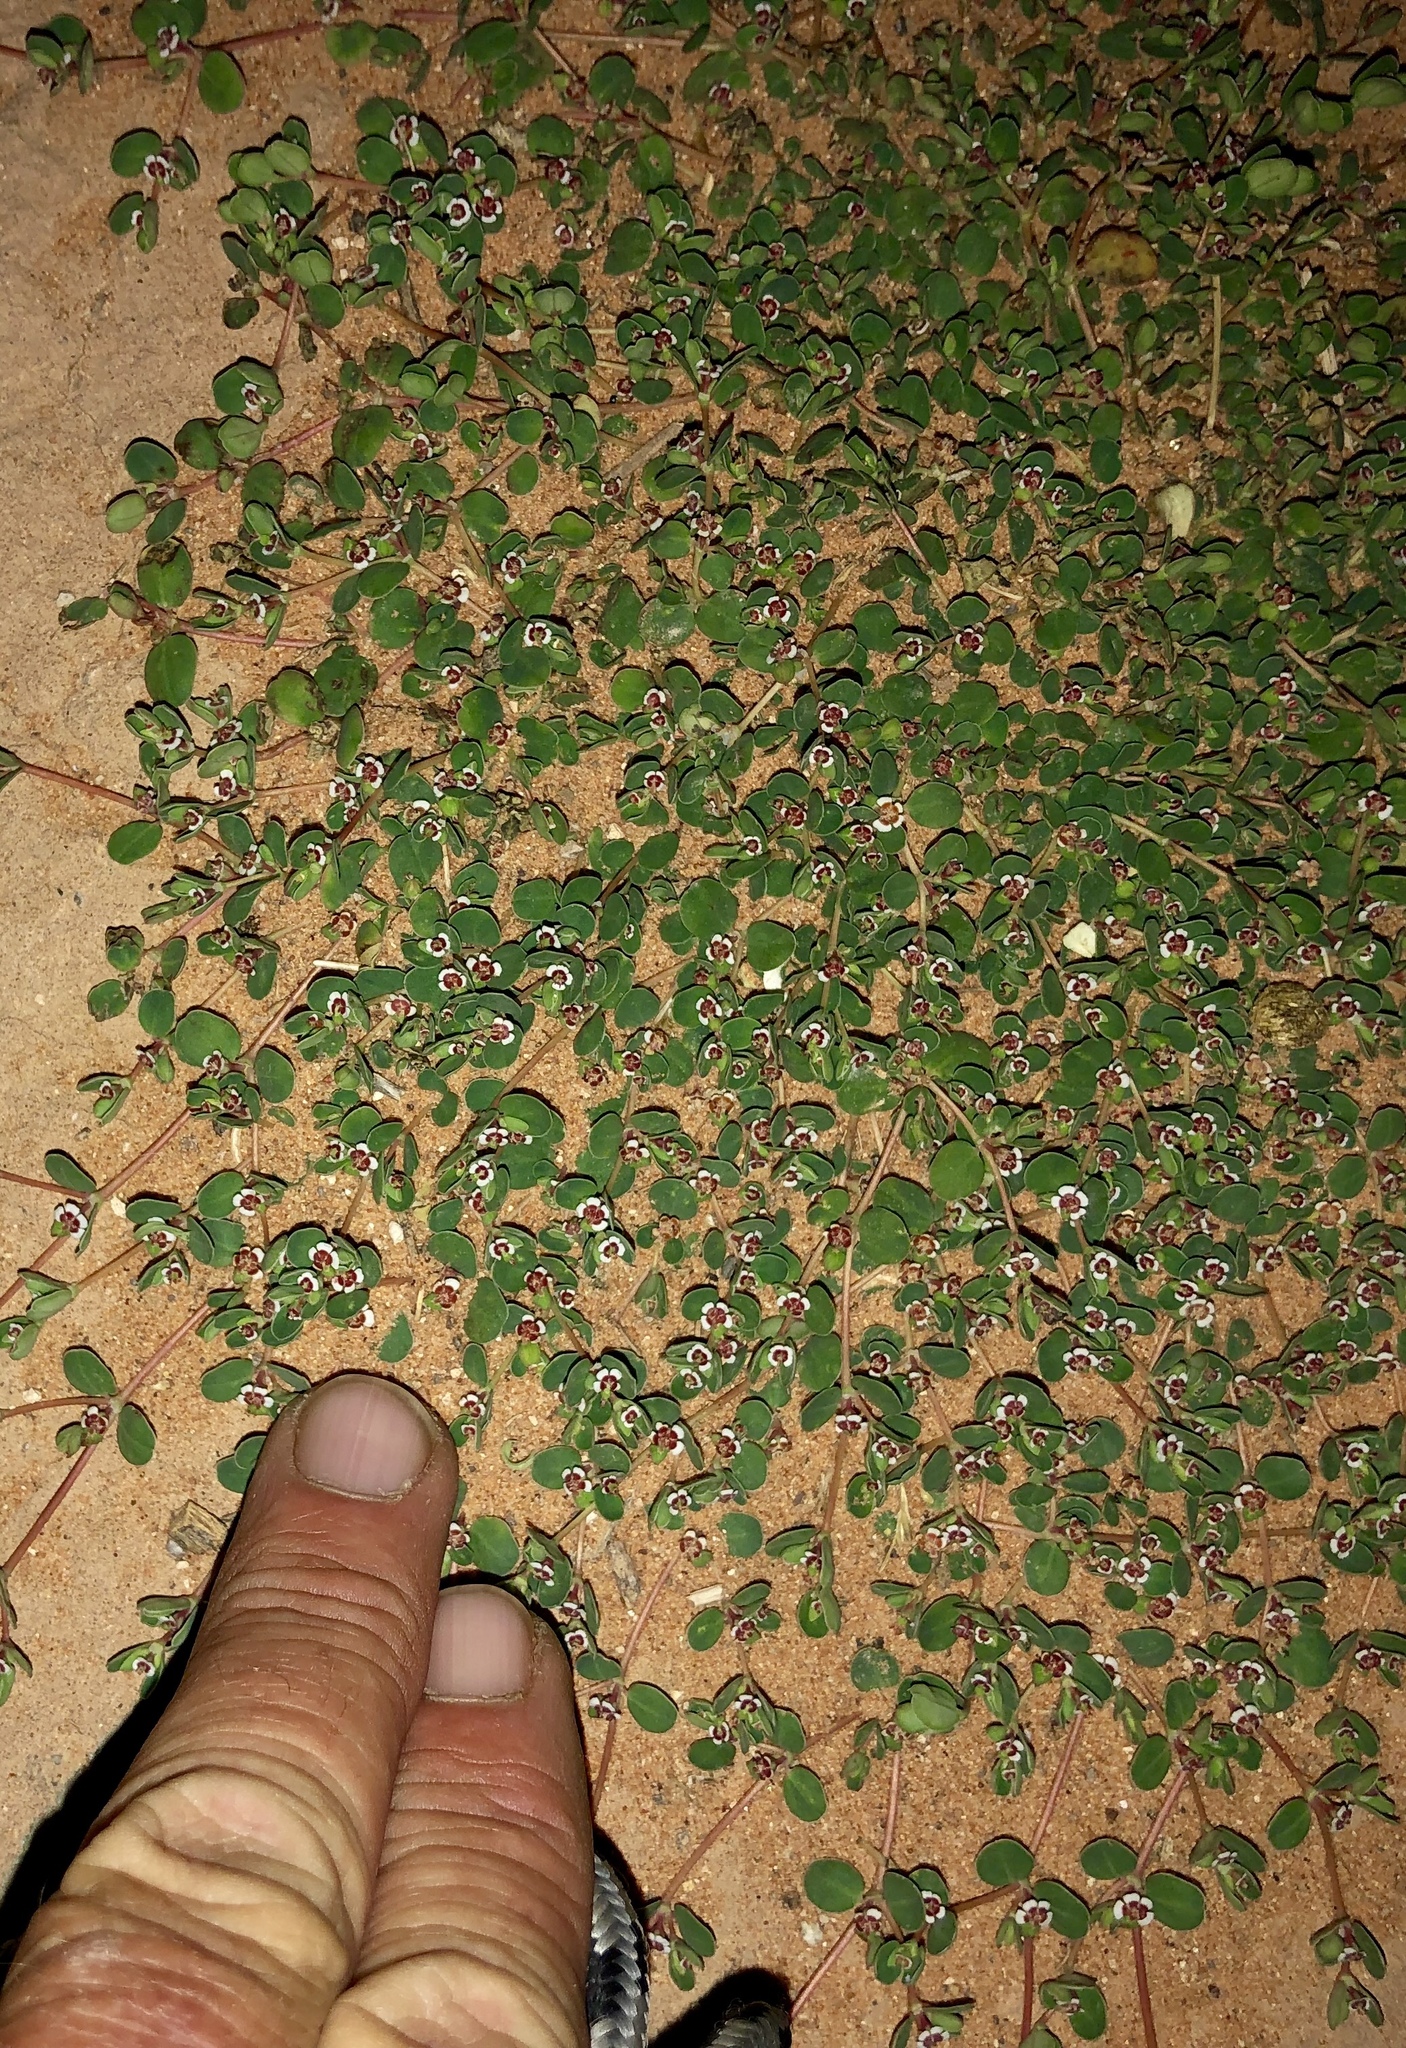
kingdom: Plantae
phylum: Tracheophyta
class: Magnoliopsida
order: Malpighiales
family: Euphorbiaceae
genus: Euphorbia
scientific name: Euphorbia albomarginata
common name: Whitemargin sandmat
